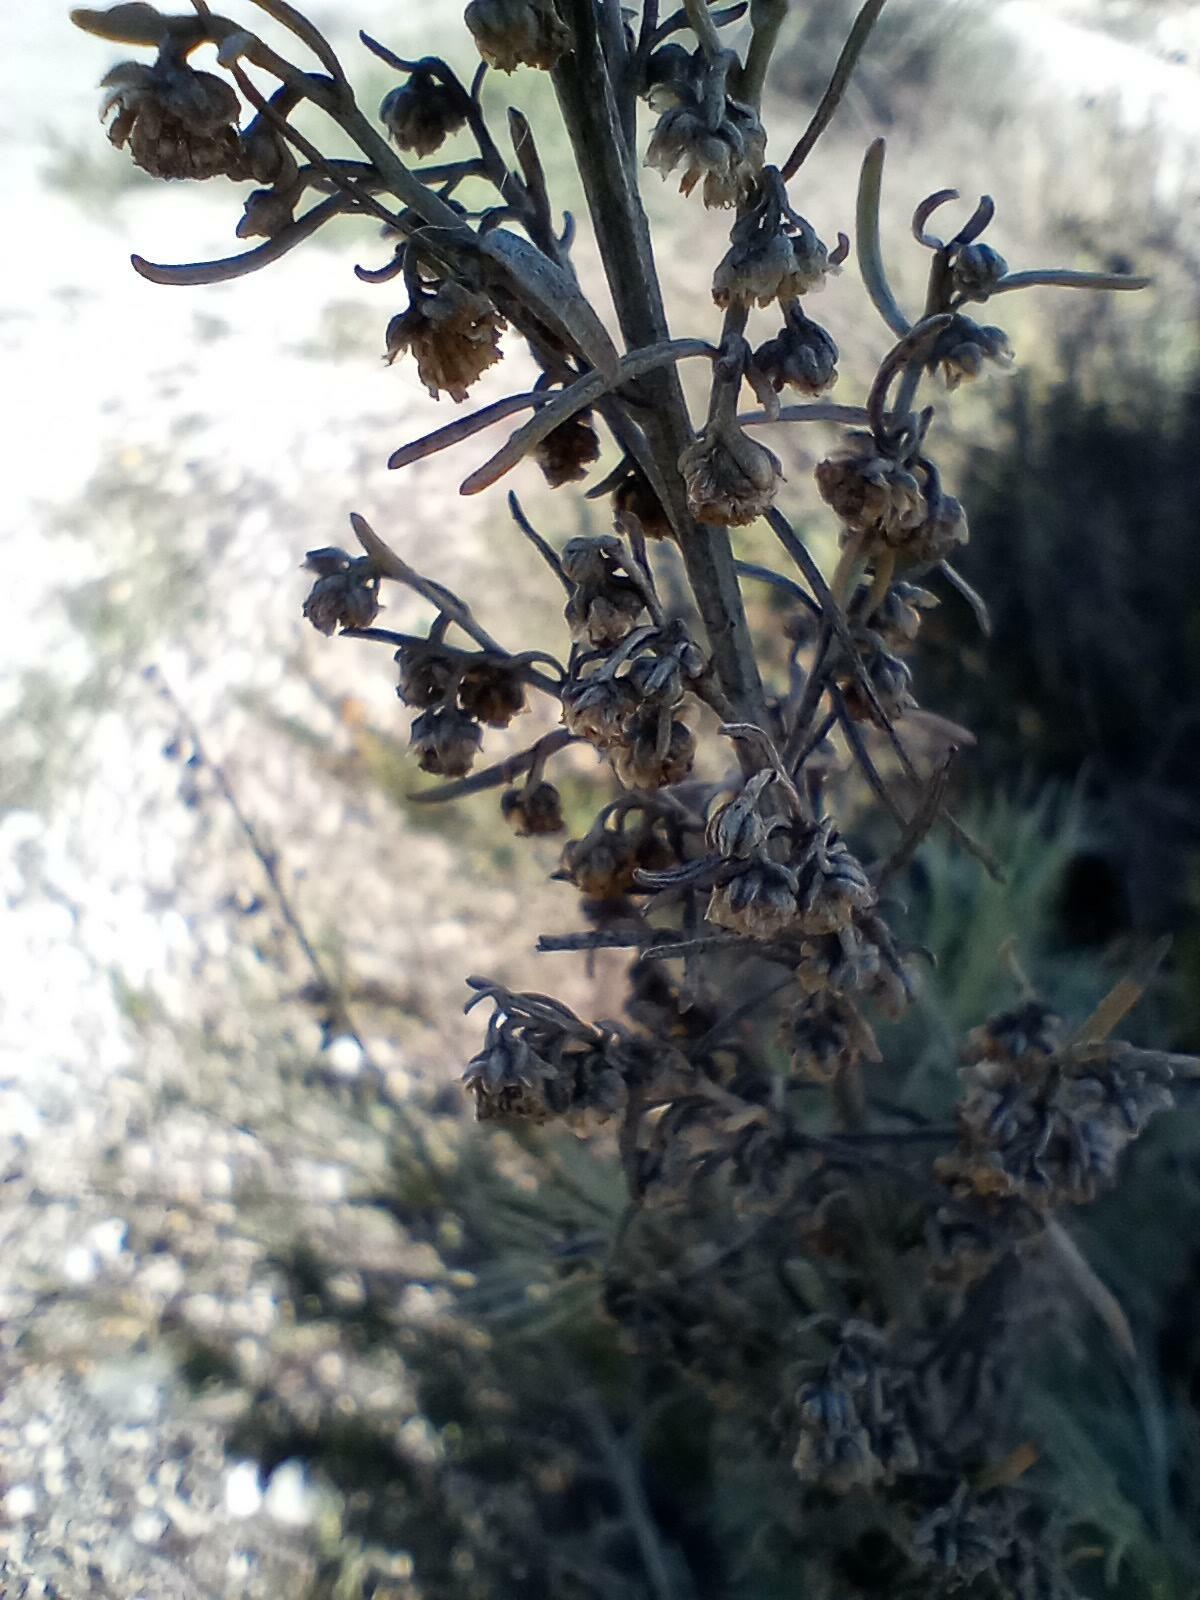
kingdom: Plantae
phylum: Tracheophyta
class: Magnoliopsida
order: Asterales
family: Asteraceae
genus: Artemisia
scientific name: Artemisia californica
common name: California sagebrush
